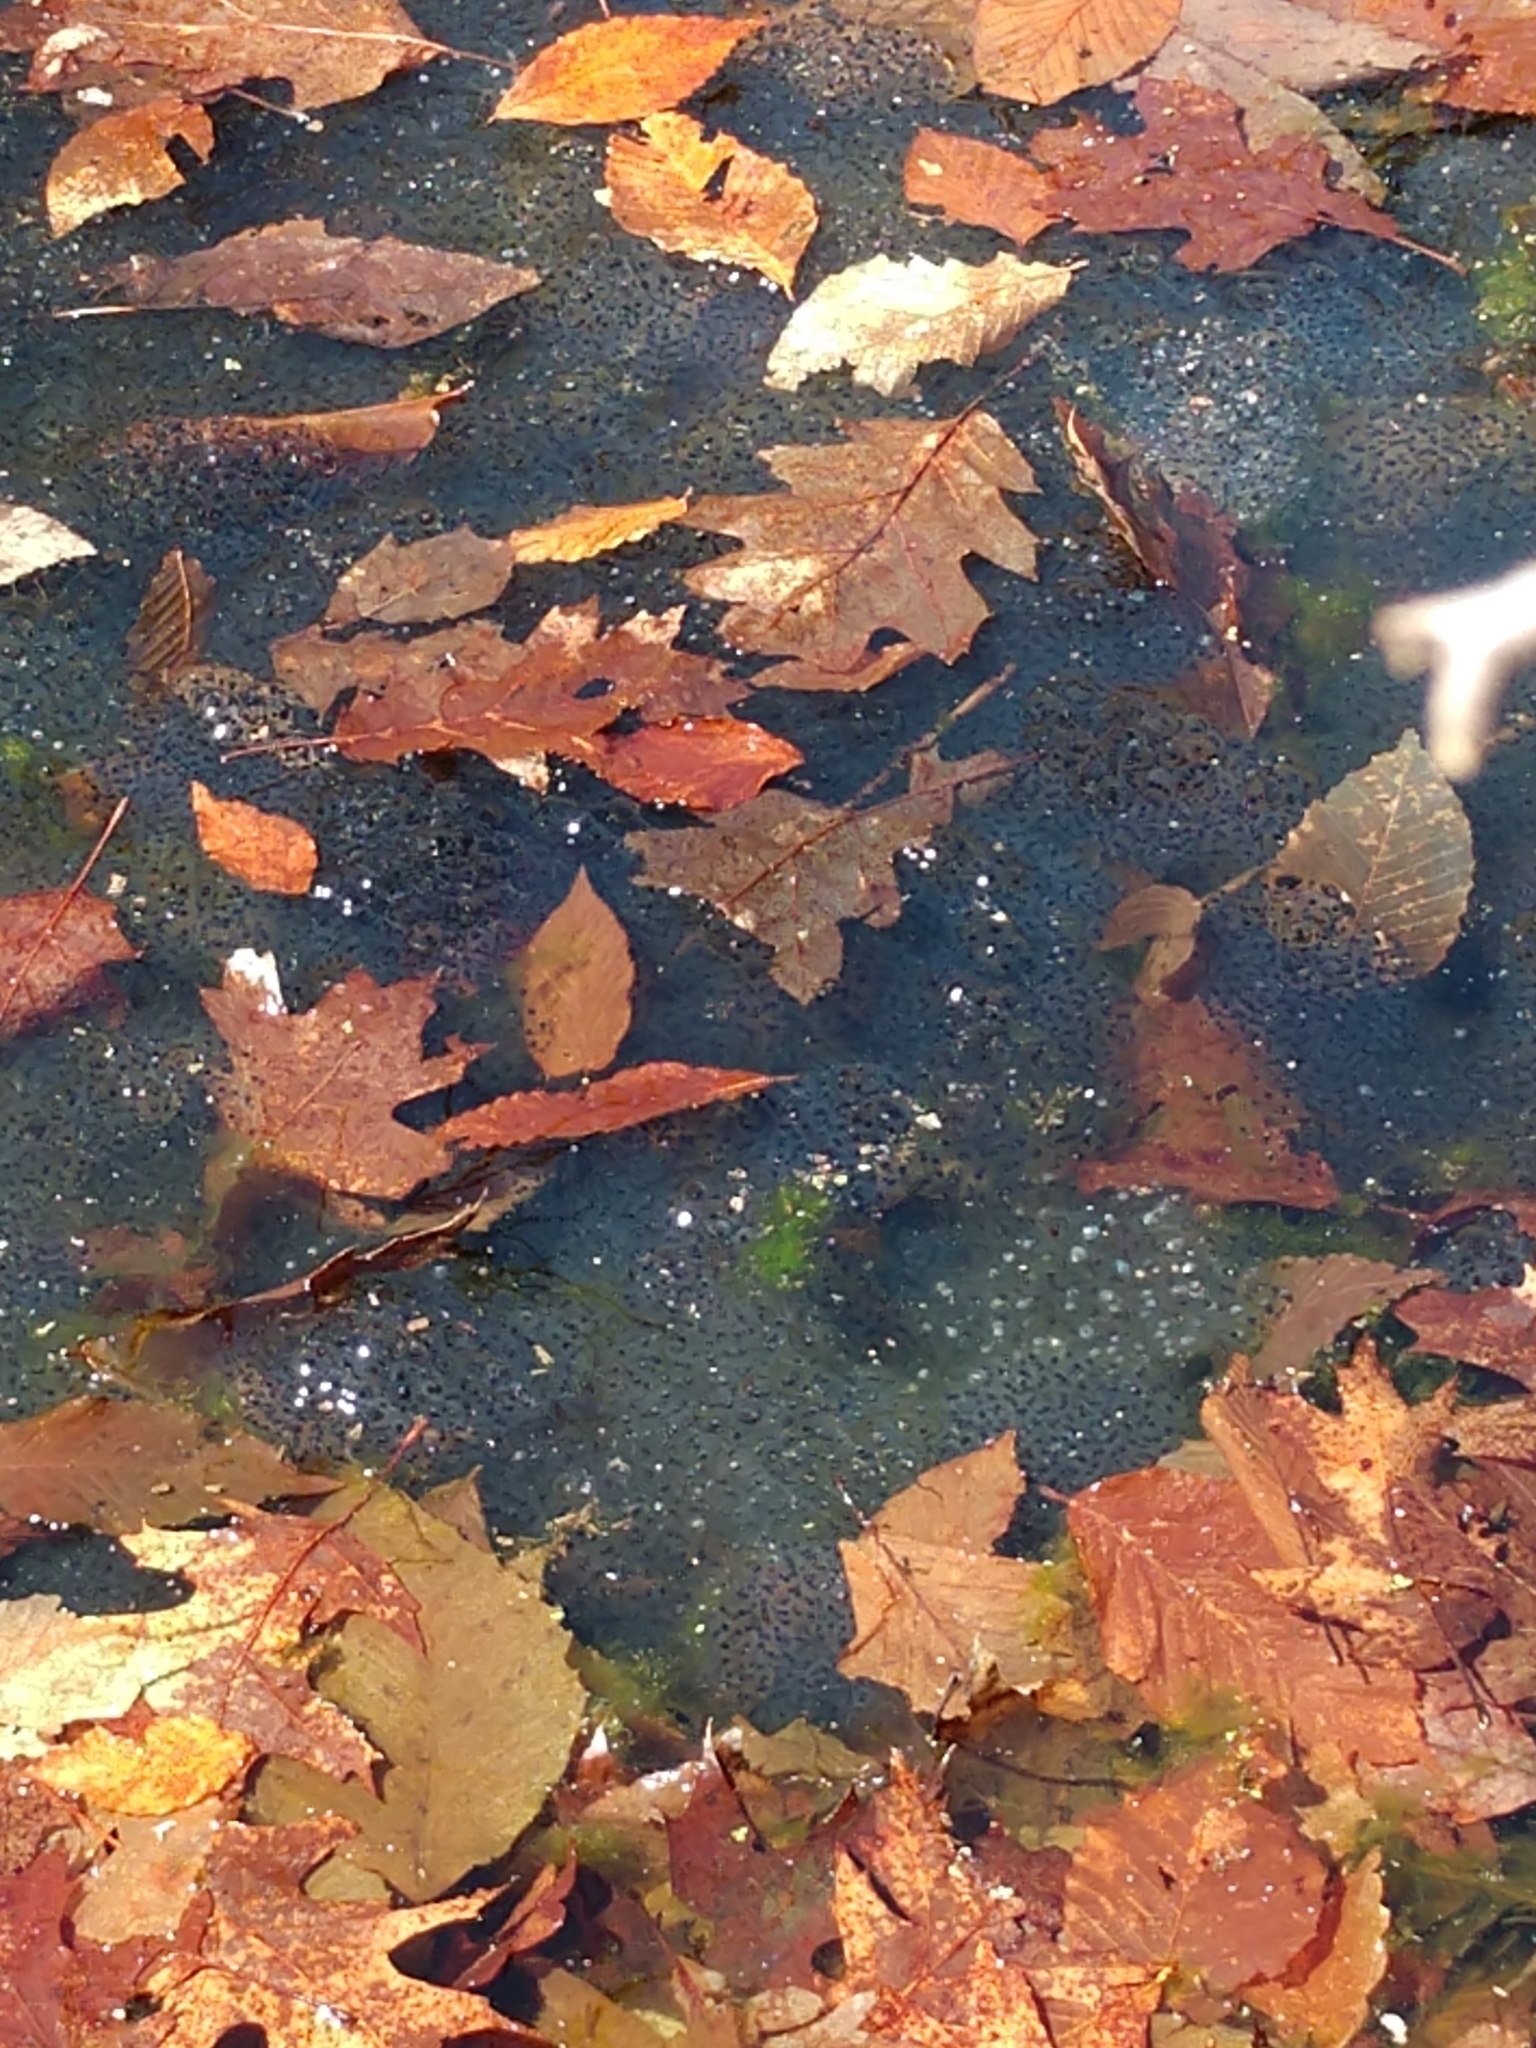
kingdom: Animalia
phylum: Chordata
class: Amphibia
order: Anura
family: Ranidae
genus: Lithobates
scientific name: Lithobates sylvaticus
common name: Wood frog
